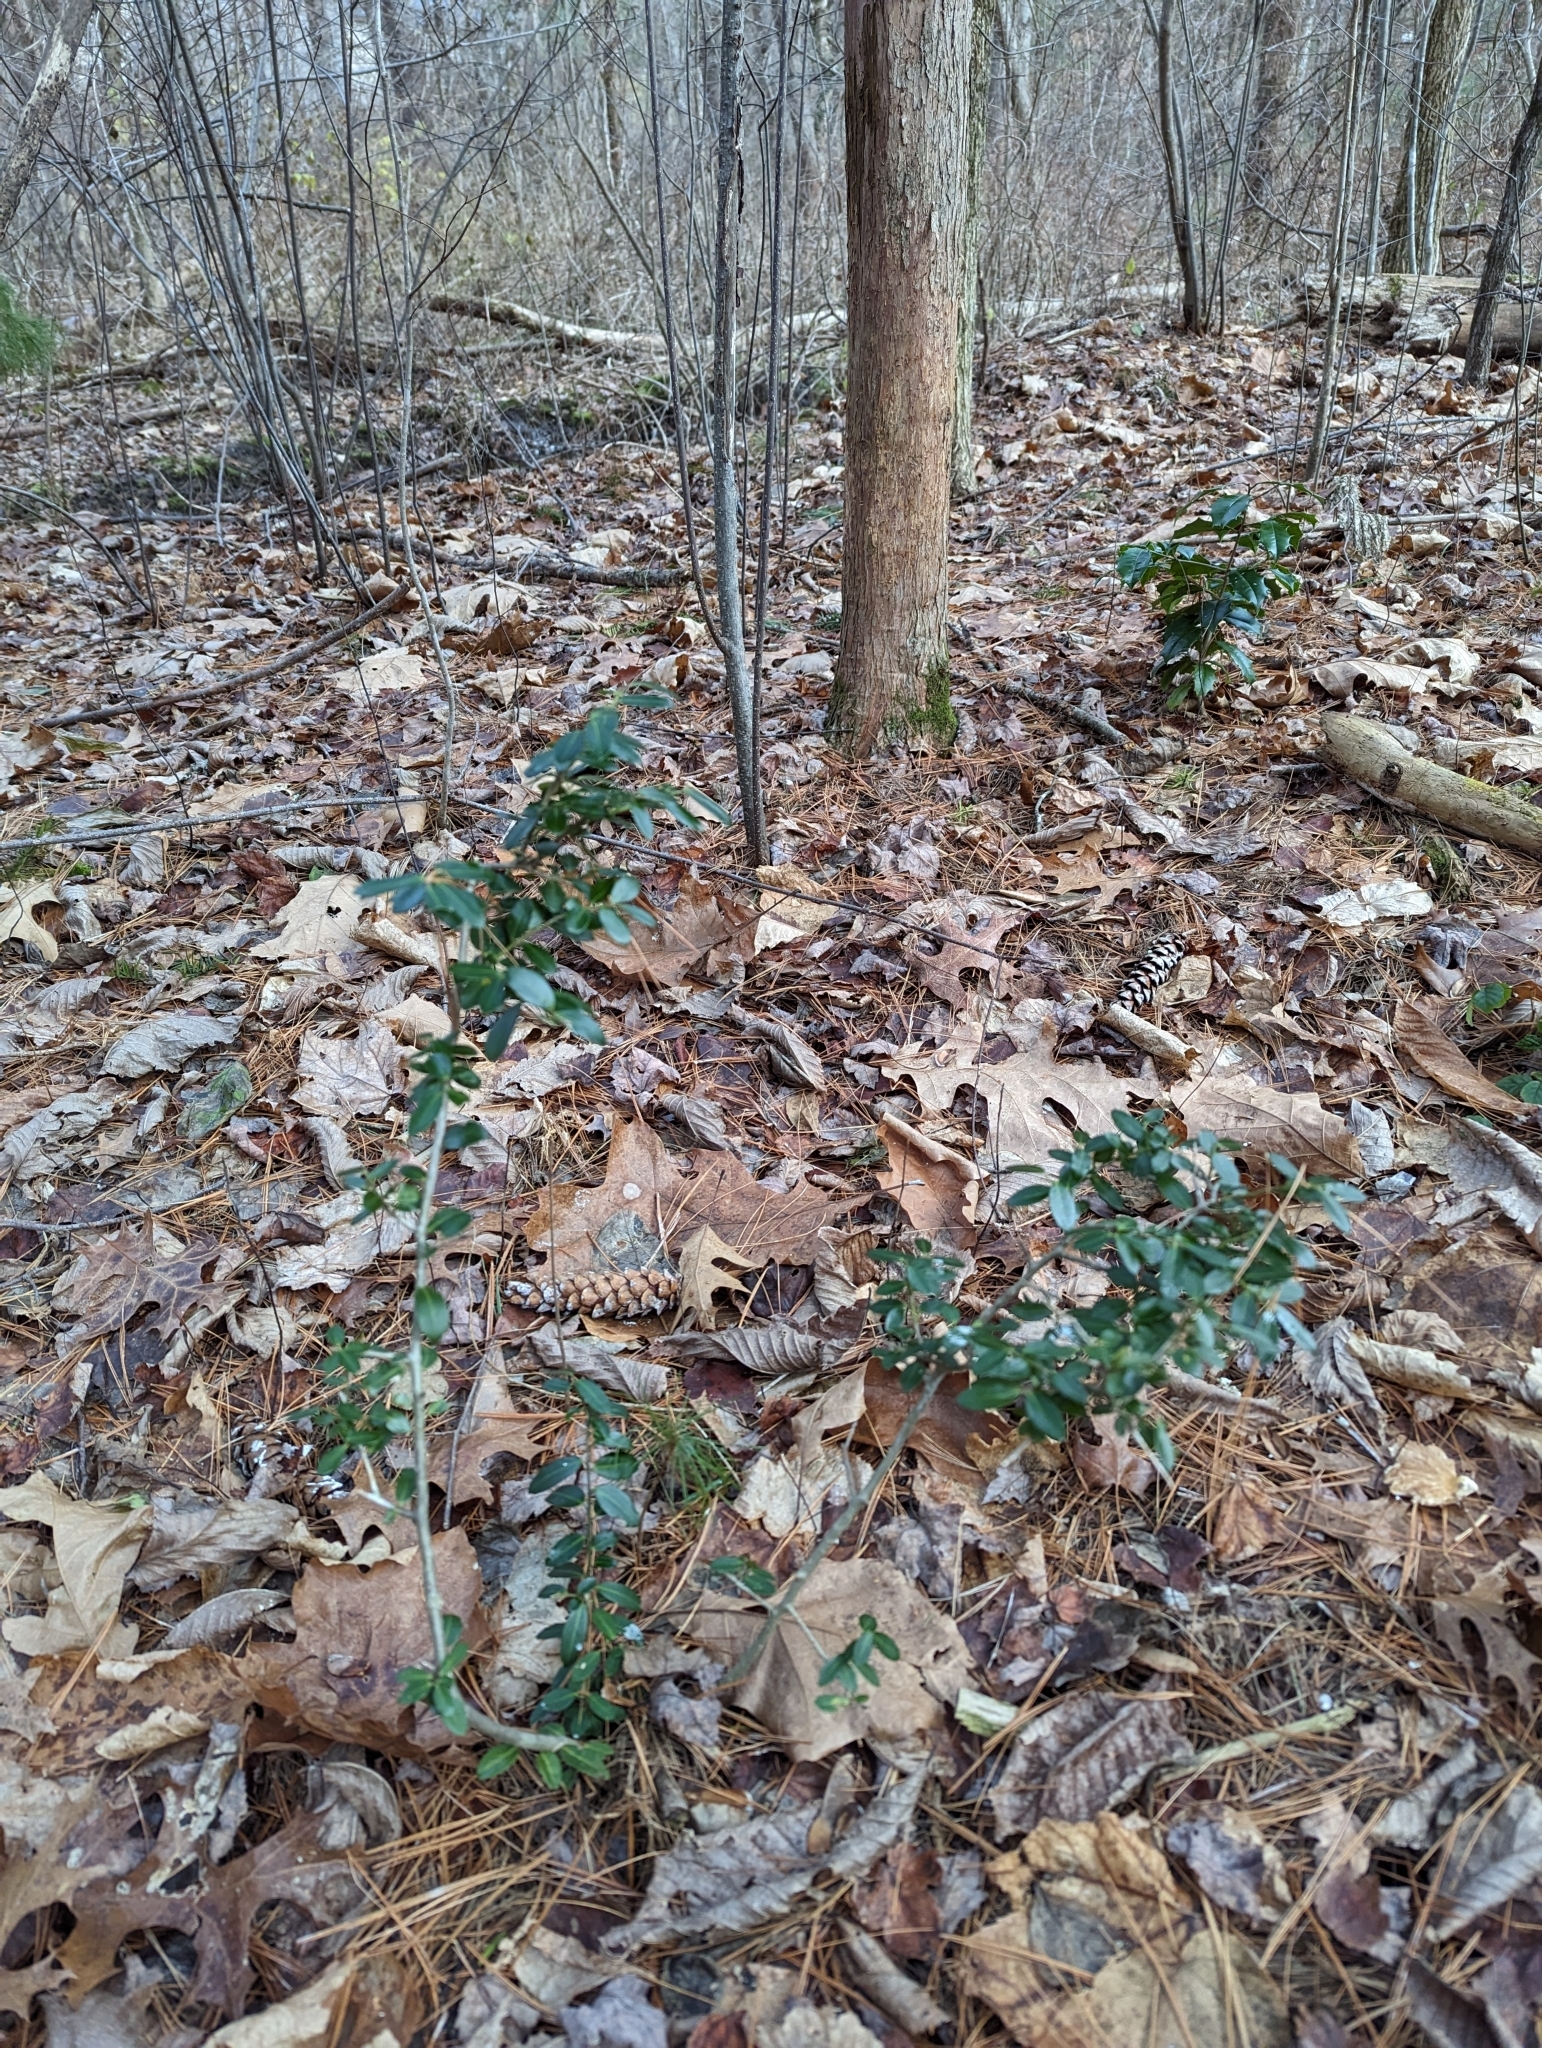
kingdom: Plantae
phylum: Tracheophyta
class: Magnoliopsida
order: Aquifoliales
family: Aquifoliaceae
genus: Ilex
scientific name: Ilex crenata
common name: Japanese holly
